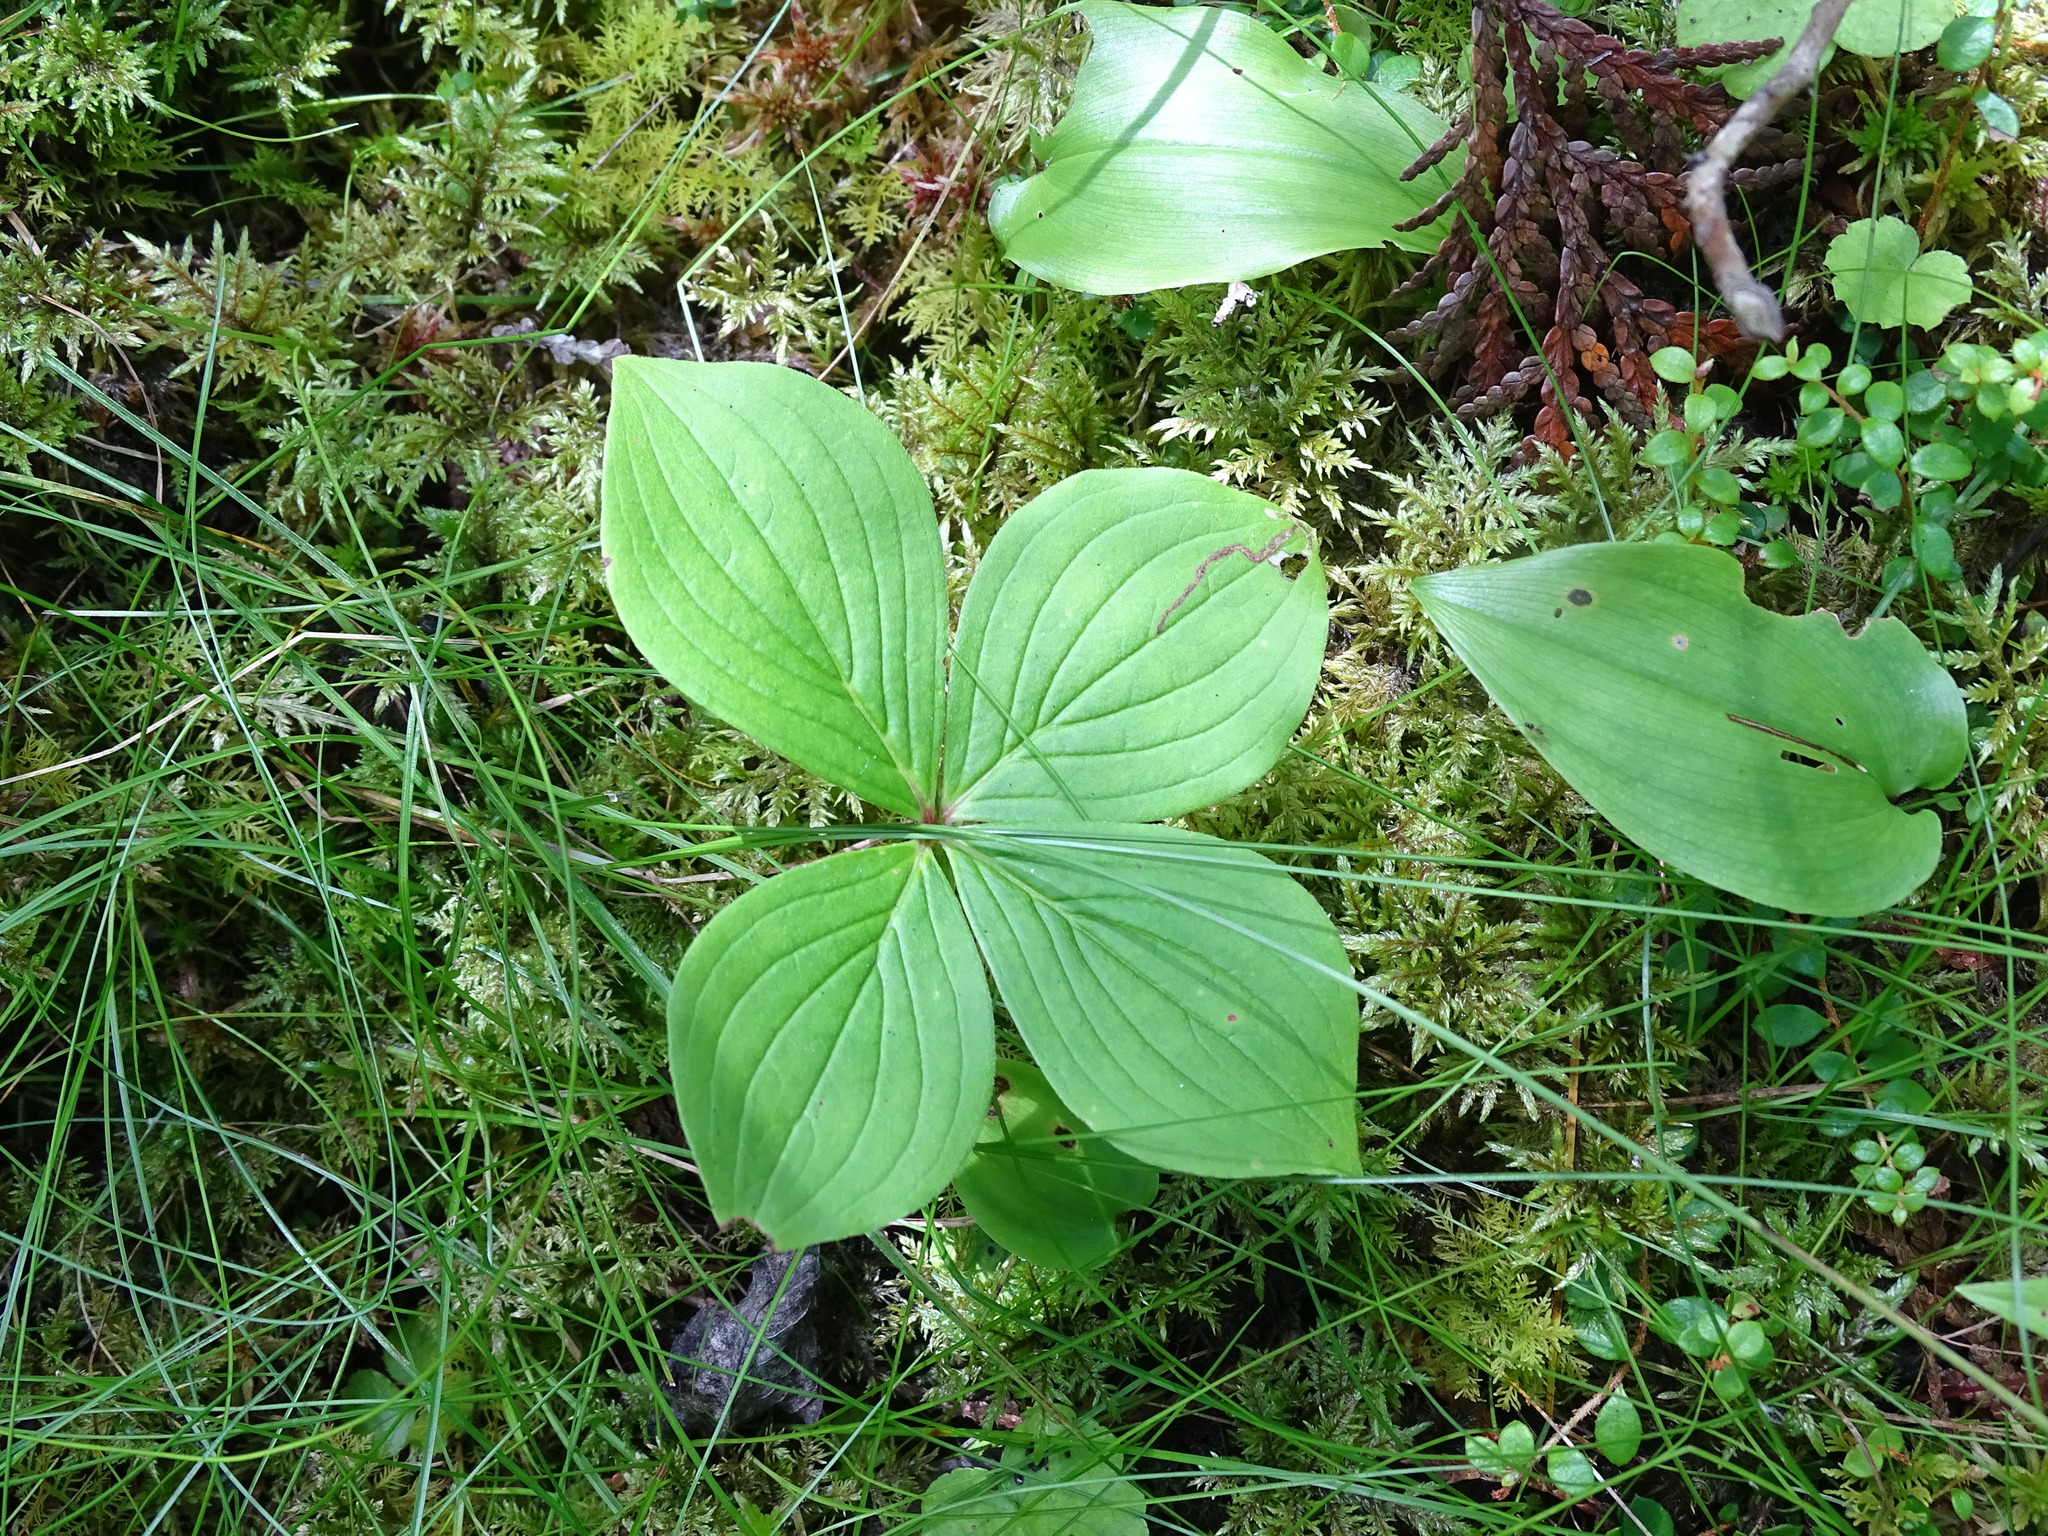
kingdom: Plantae
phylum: Tracheophyta
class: Magnoliopsida
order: Cornales
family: Cornaceae
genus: Cornus
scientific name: Cornus canadensis
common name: Creeping dogwood
